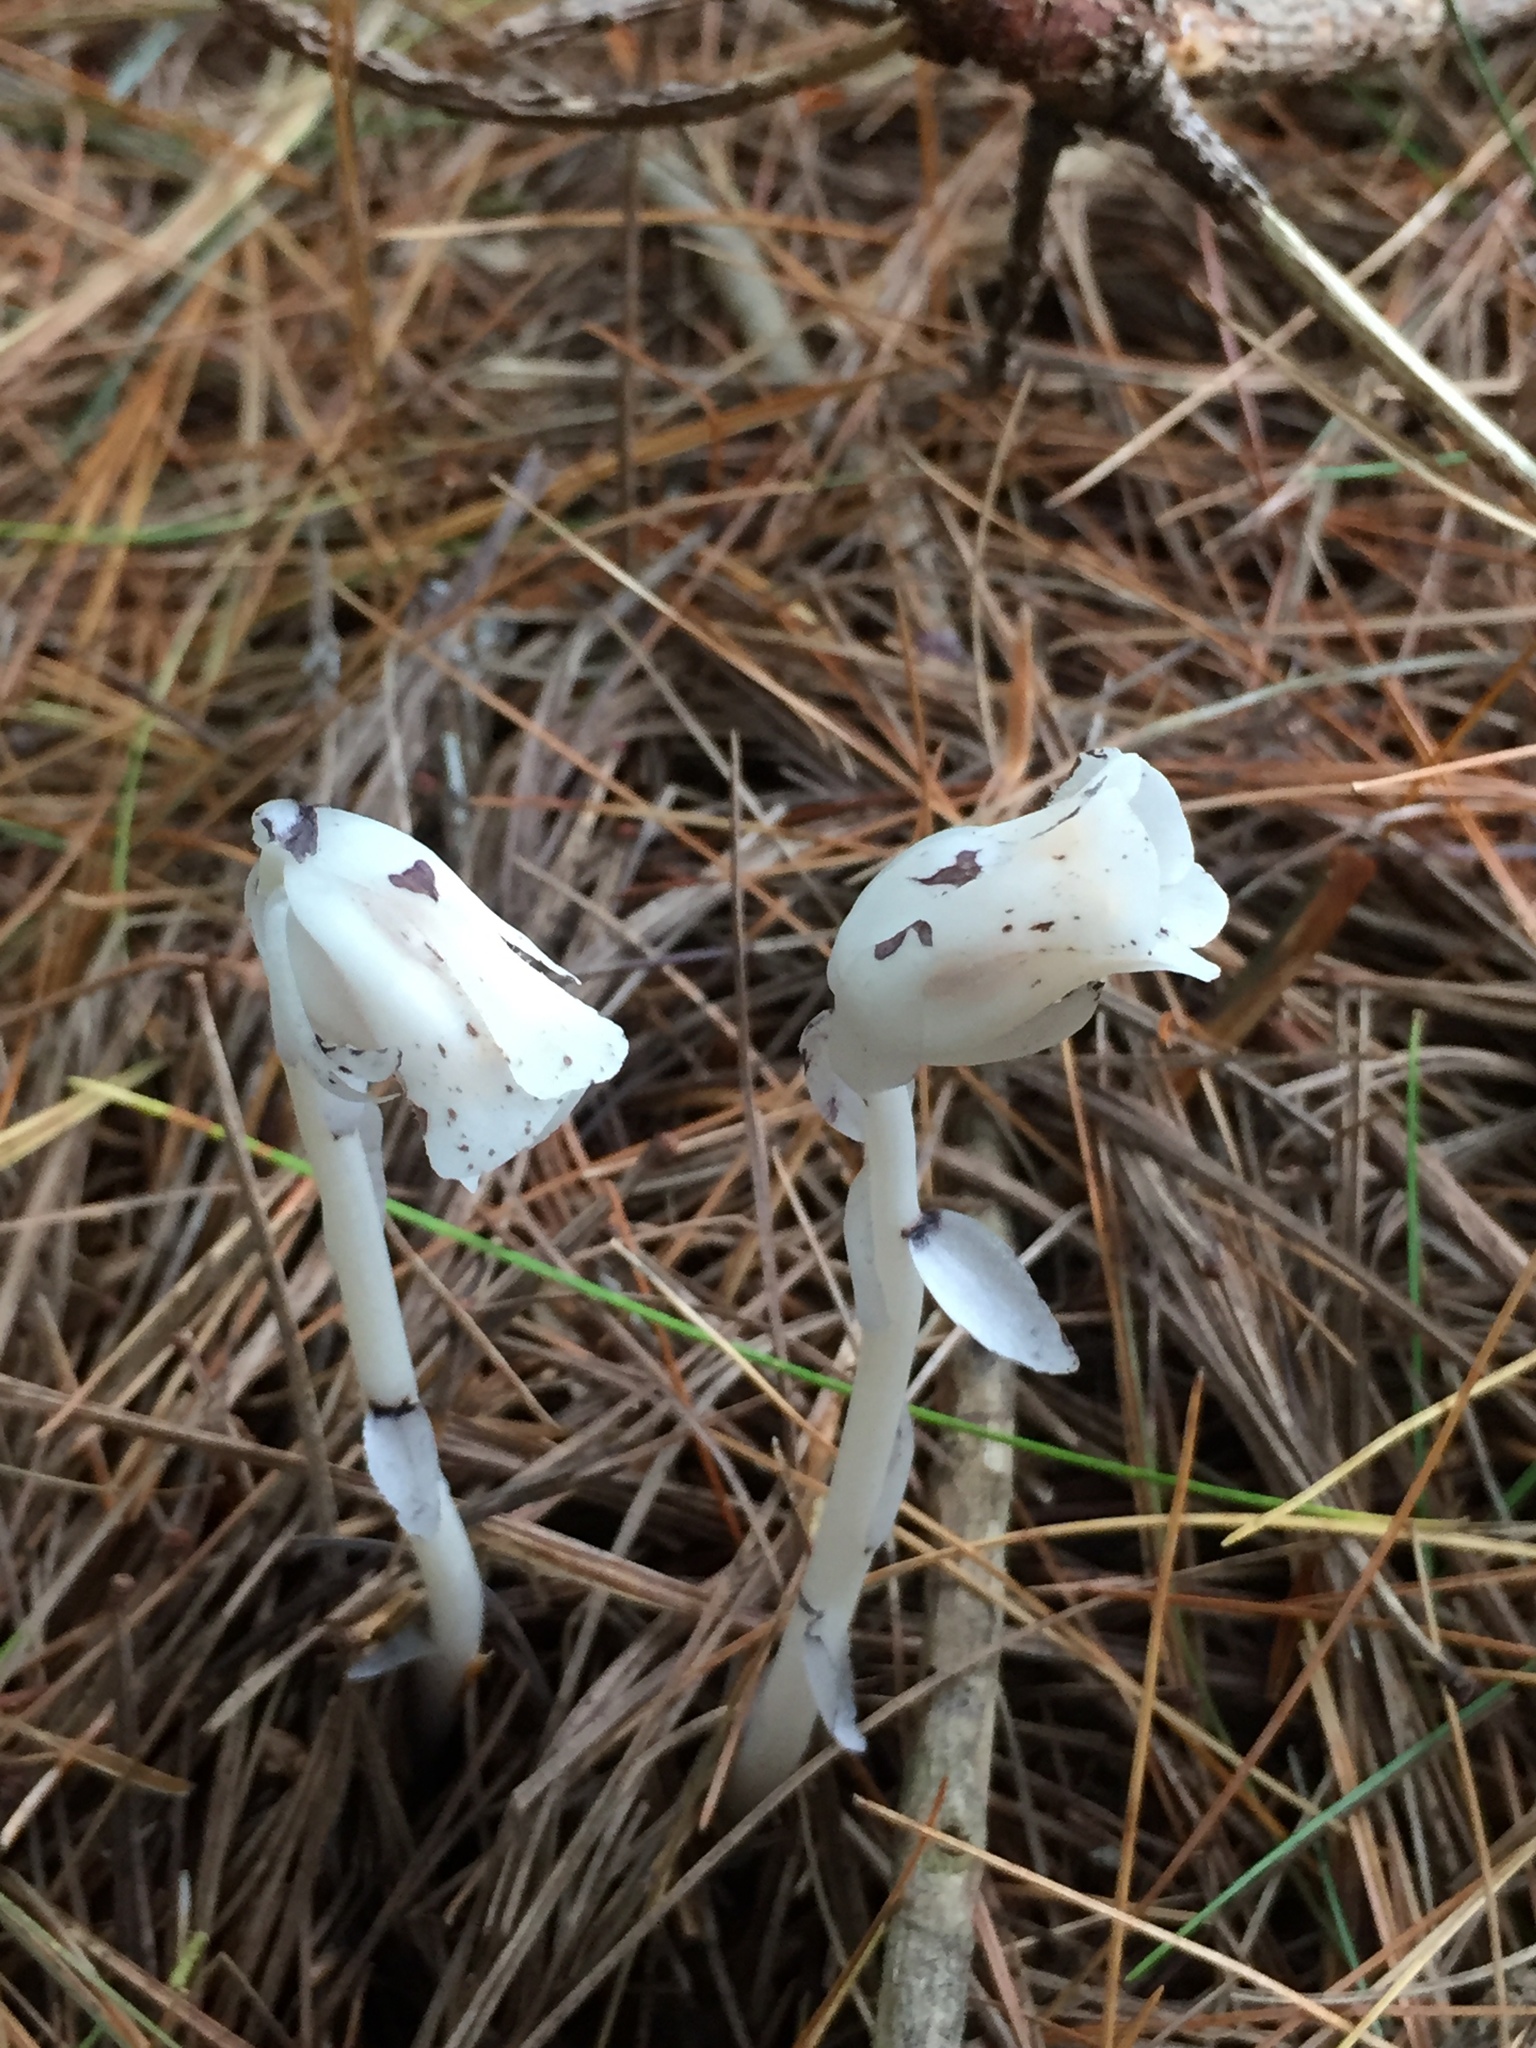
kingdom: Plantae
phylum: Tracheophyta
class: Magnoliopsida
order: Ericales
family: Ericaceae
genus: Monotropa
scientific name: Monotropa uniflora
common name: Convulsion root
